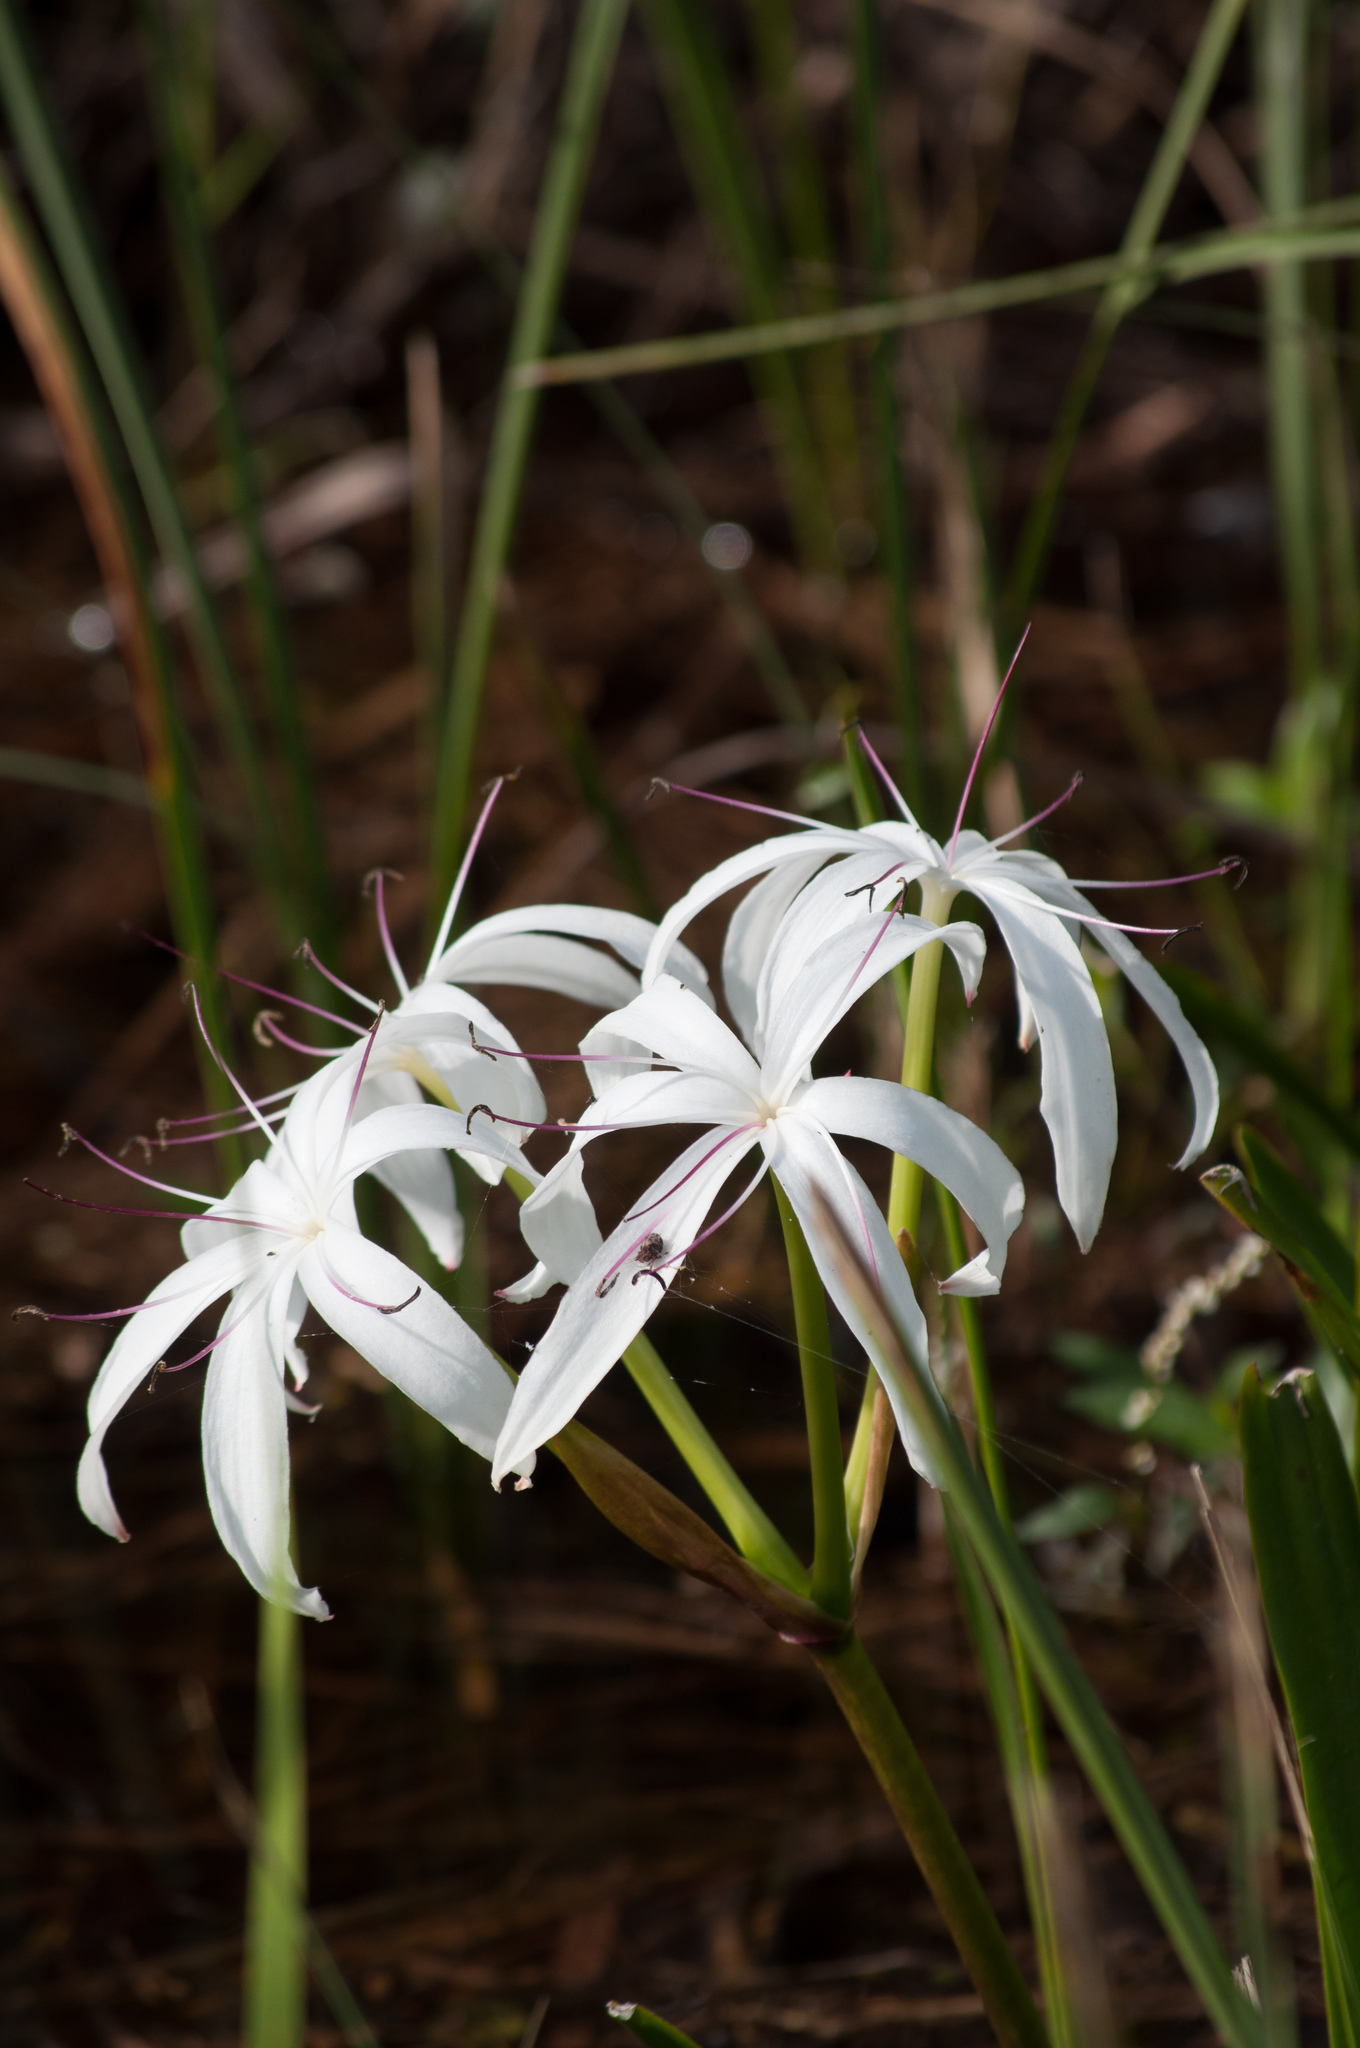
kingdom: Plantae
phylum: Tracheophyta
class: Liliopsida
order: Asparagales
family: Amaryllidaceae
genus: Crinum
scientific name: Crinum americanum
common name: Florida swamp-lily
